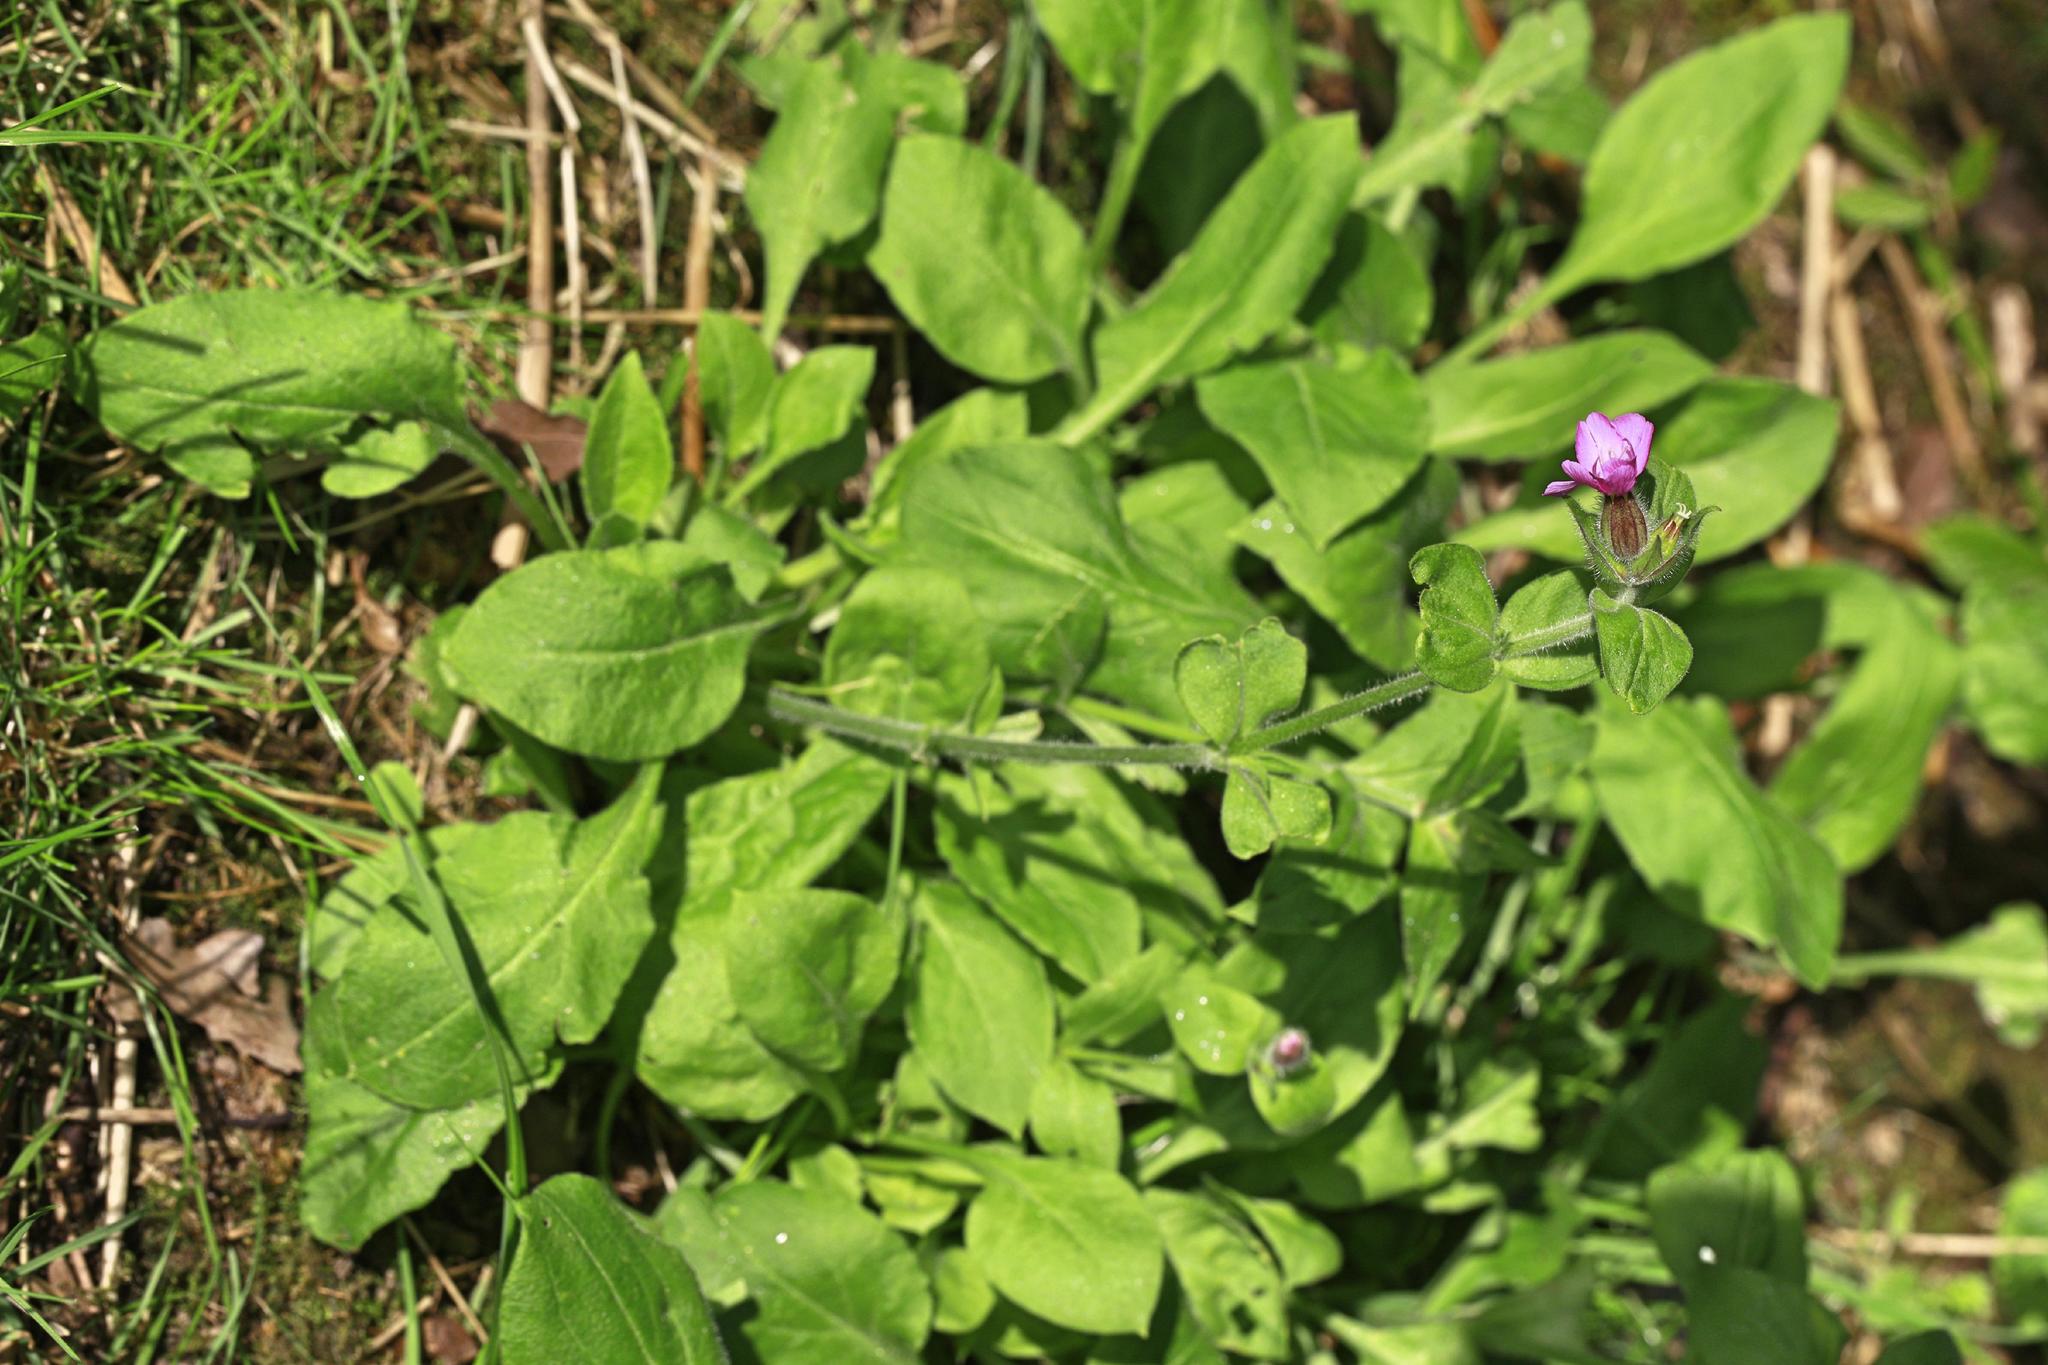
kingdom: Plantae
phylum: Tracheophyta
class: Magnoliopsida
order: Caryophyllales
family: Caryophyllaceae
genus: Silene
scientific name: Silene dioica
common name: Red campion
